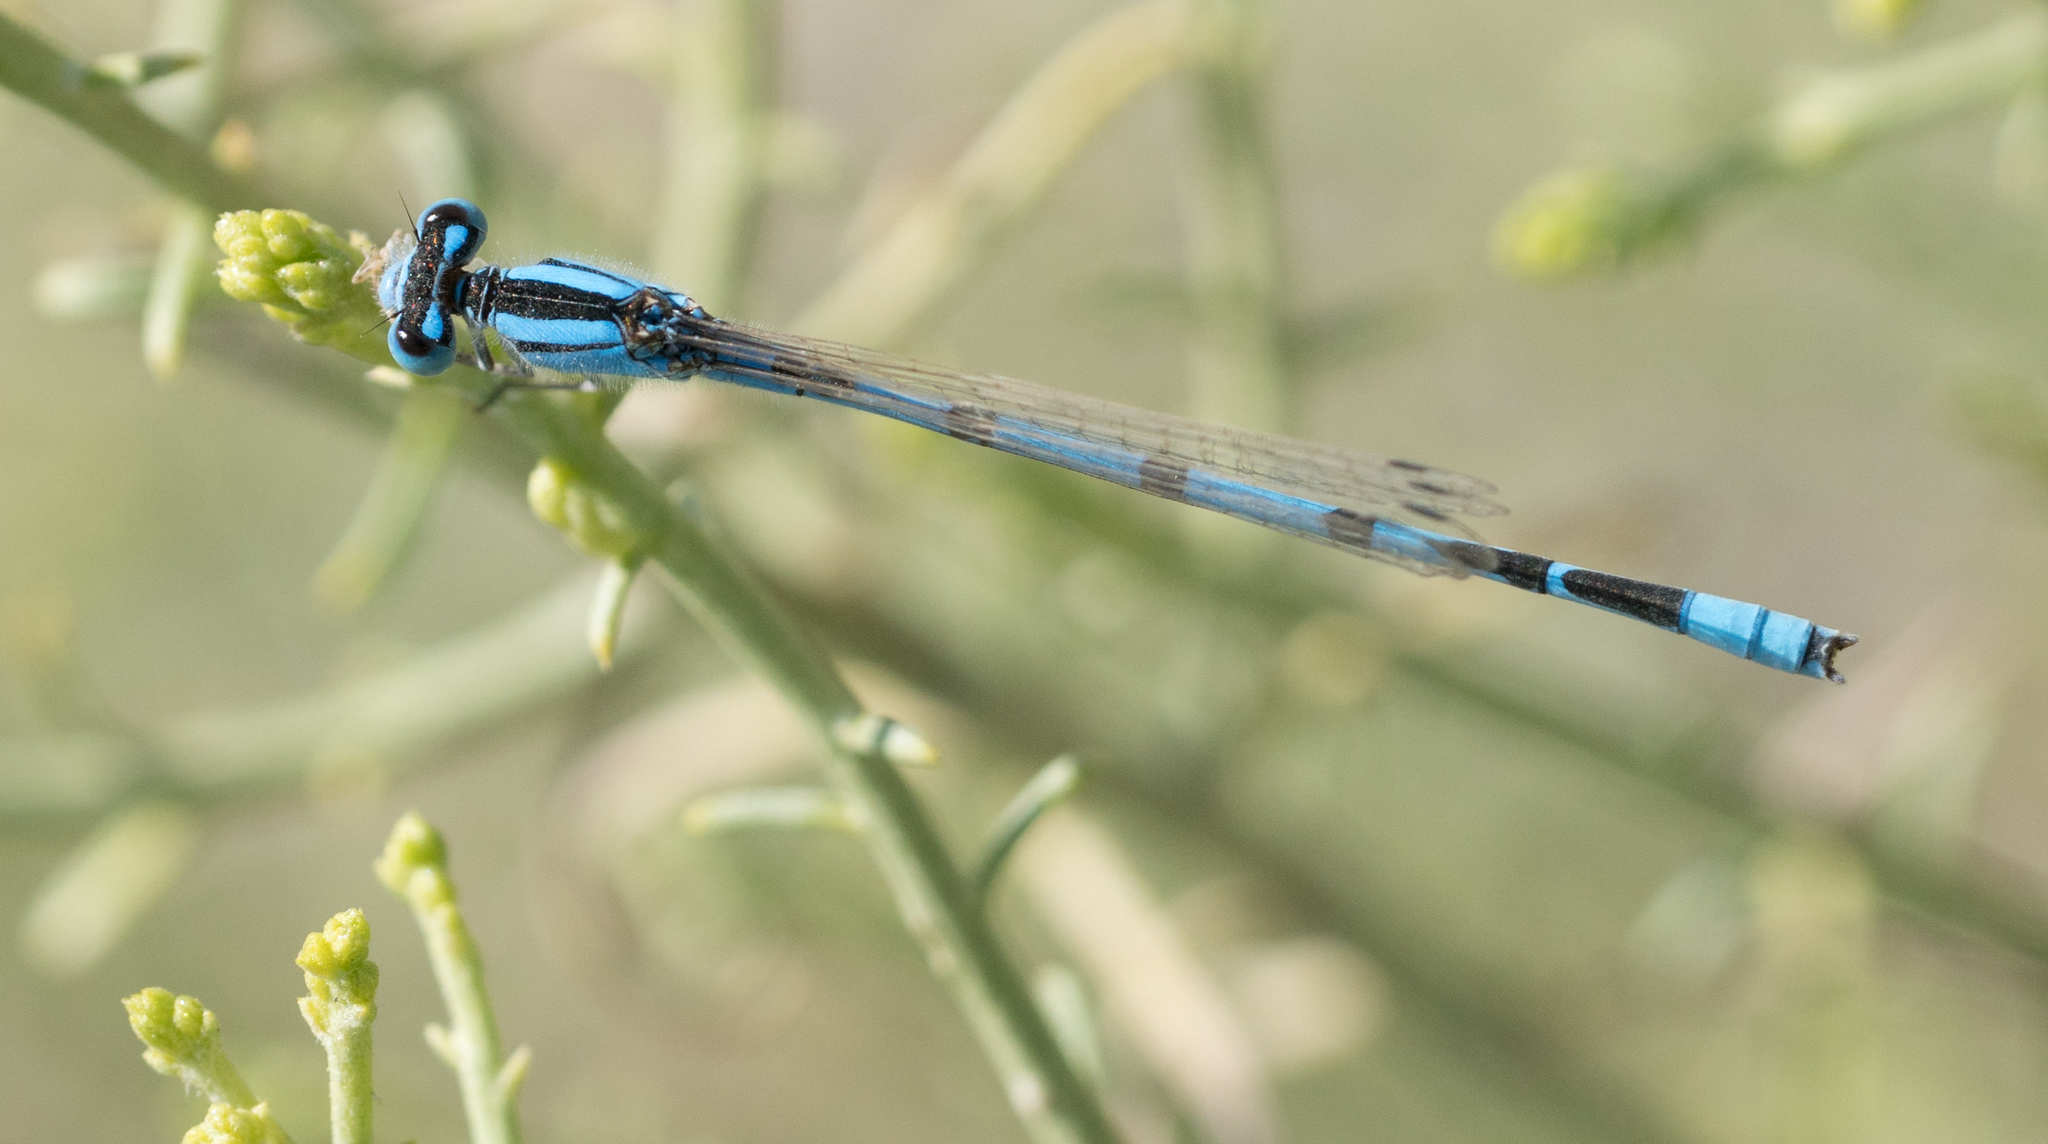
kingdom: Animalia
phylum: Arthropoda
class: Insecta
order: Odonata
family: Coenagrionidae
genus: Enallagma
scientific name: Enallagma civile
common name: Damselfly
